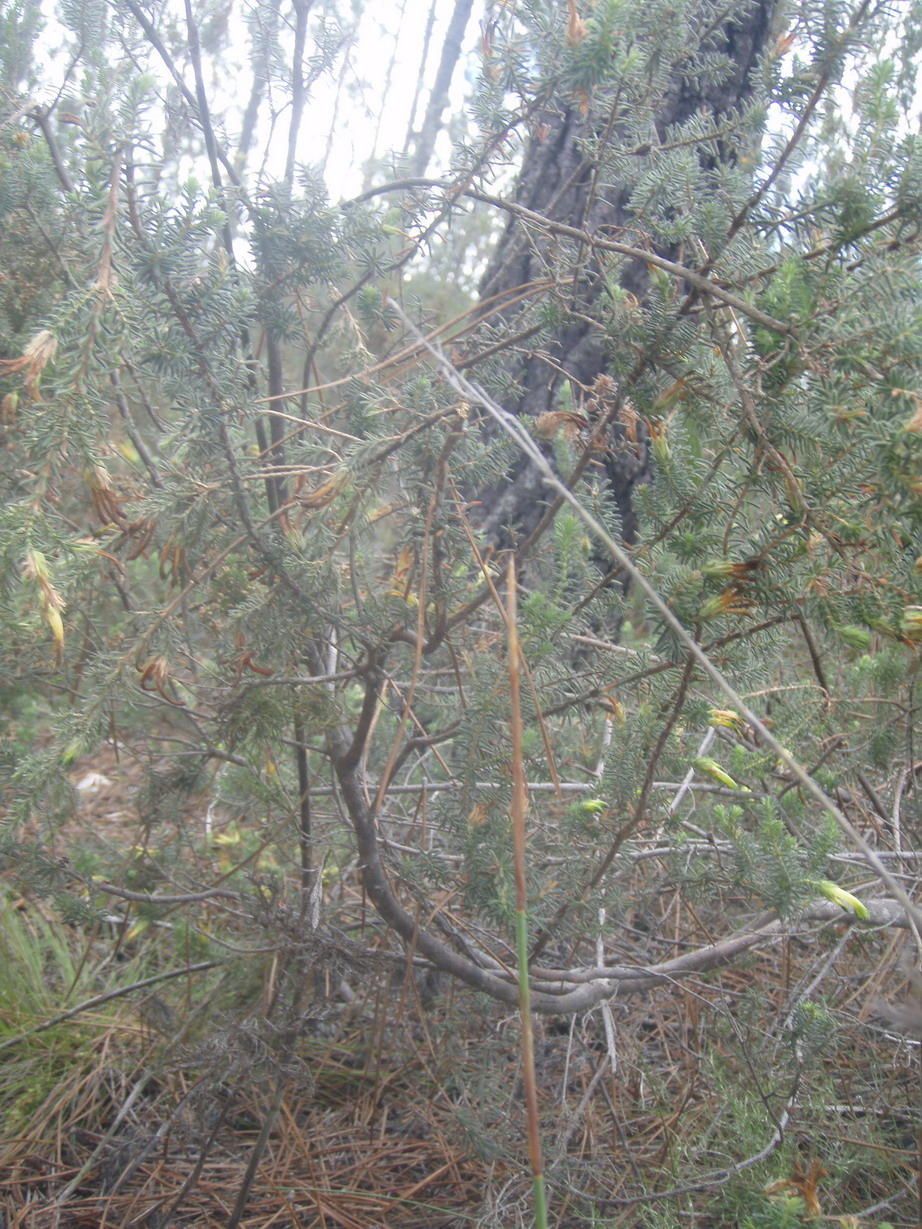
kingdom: Plantae
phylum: Tracheophyta
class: Magnoliopsida
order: Ericales
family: Ericaceae
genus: Erica
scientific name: Erica unicolor
